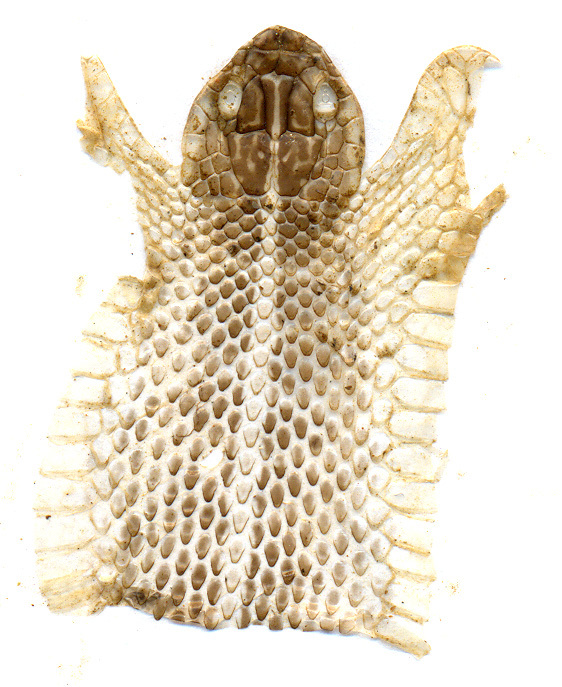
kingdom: Animalia
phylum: Chordata
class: Squamata
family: Colubridae
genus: Orientocoluber
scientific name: Orientocoluber spinalis
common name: Slender racer
